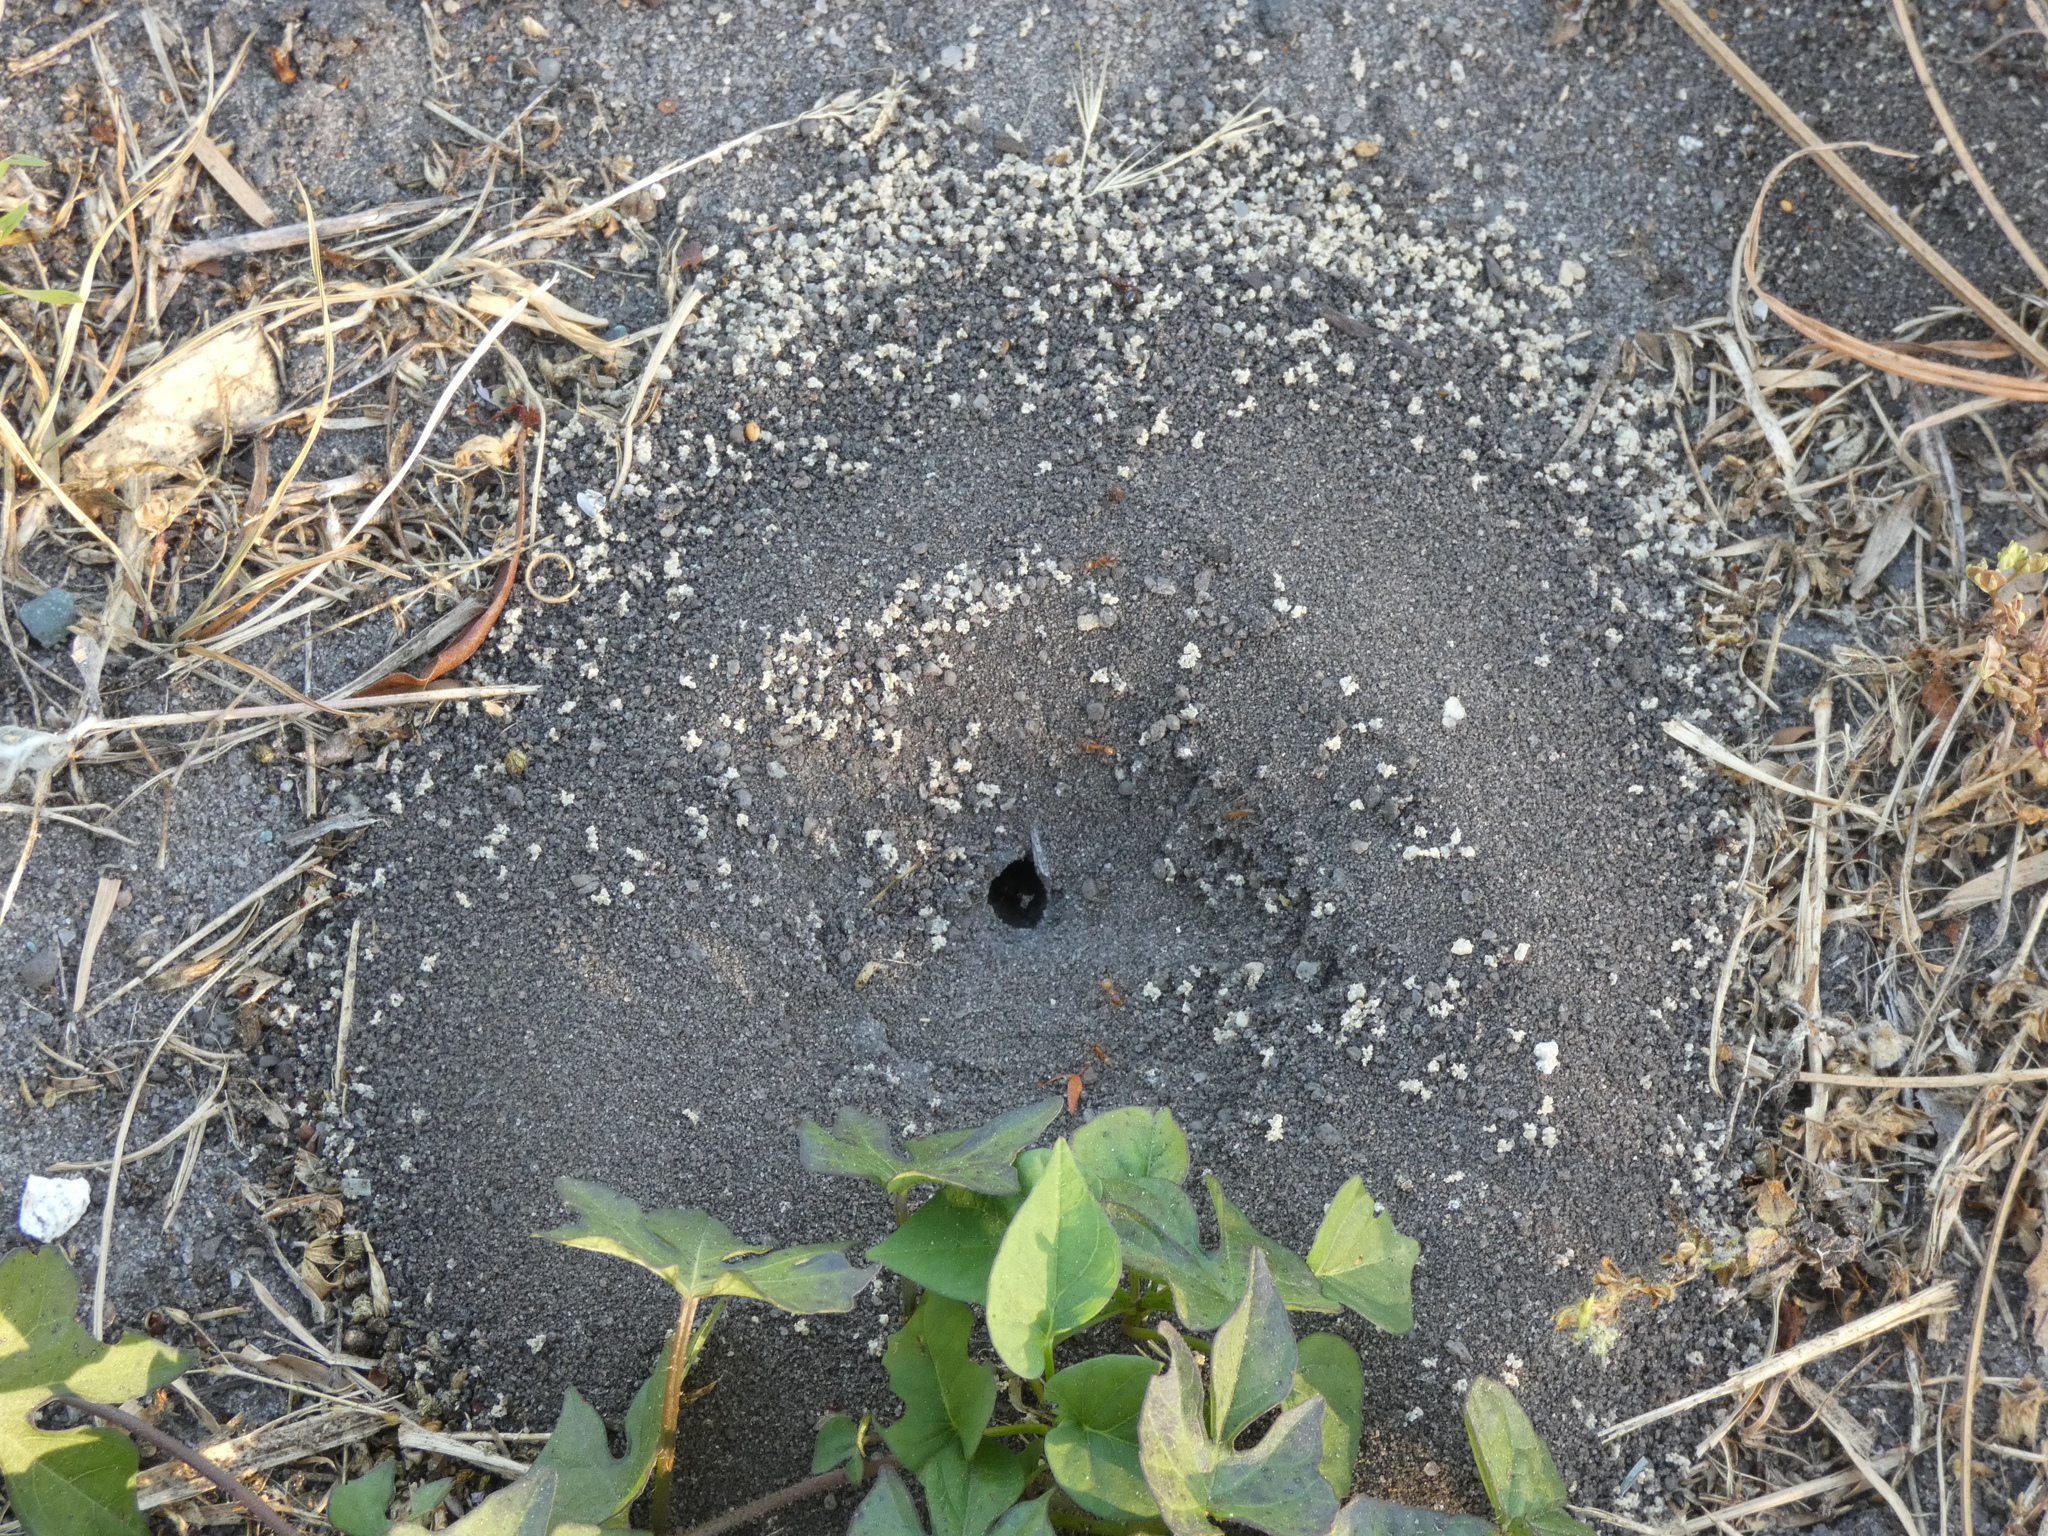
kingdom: Animalia
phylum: Arthropoda
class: Insecta
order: Hymenoptera
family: Formicidae
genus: Dorymyrmex
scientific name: Dorymyrmex bureni
